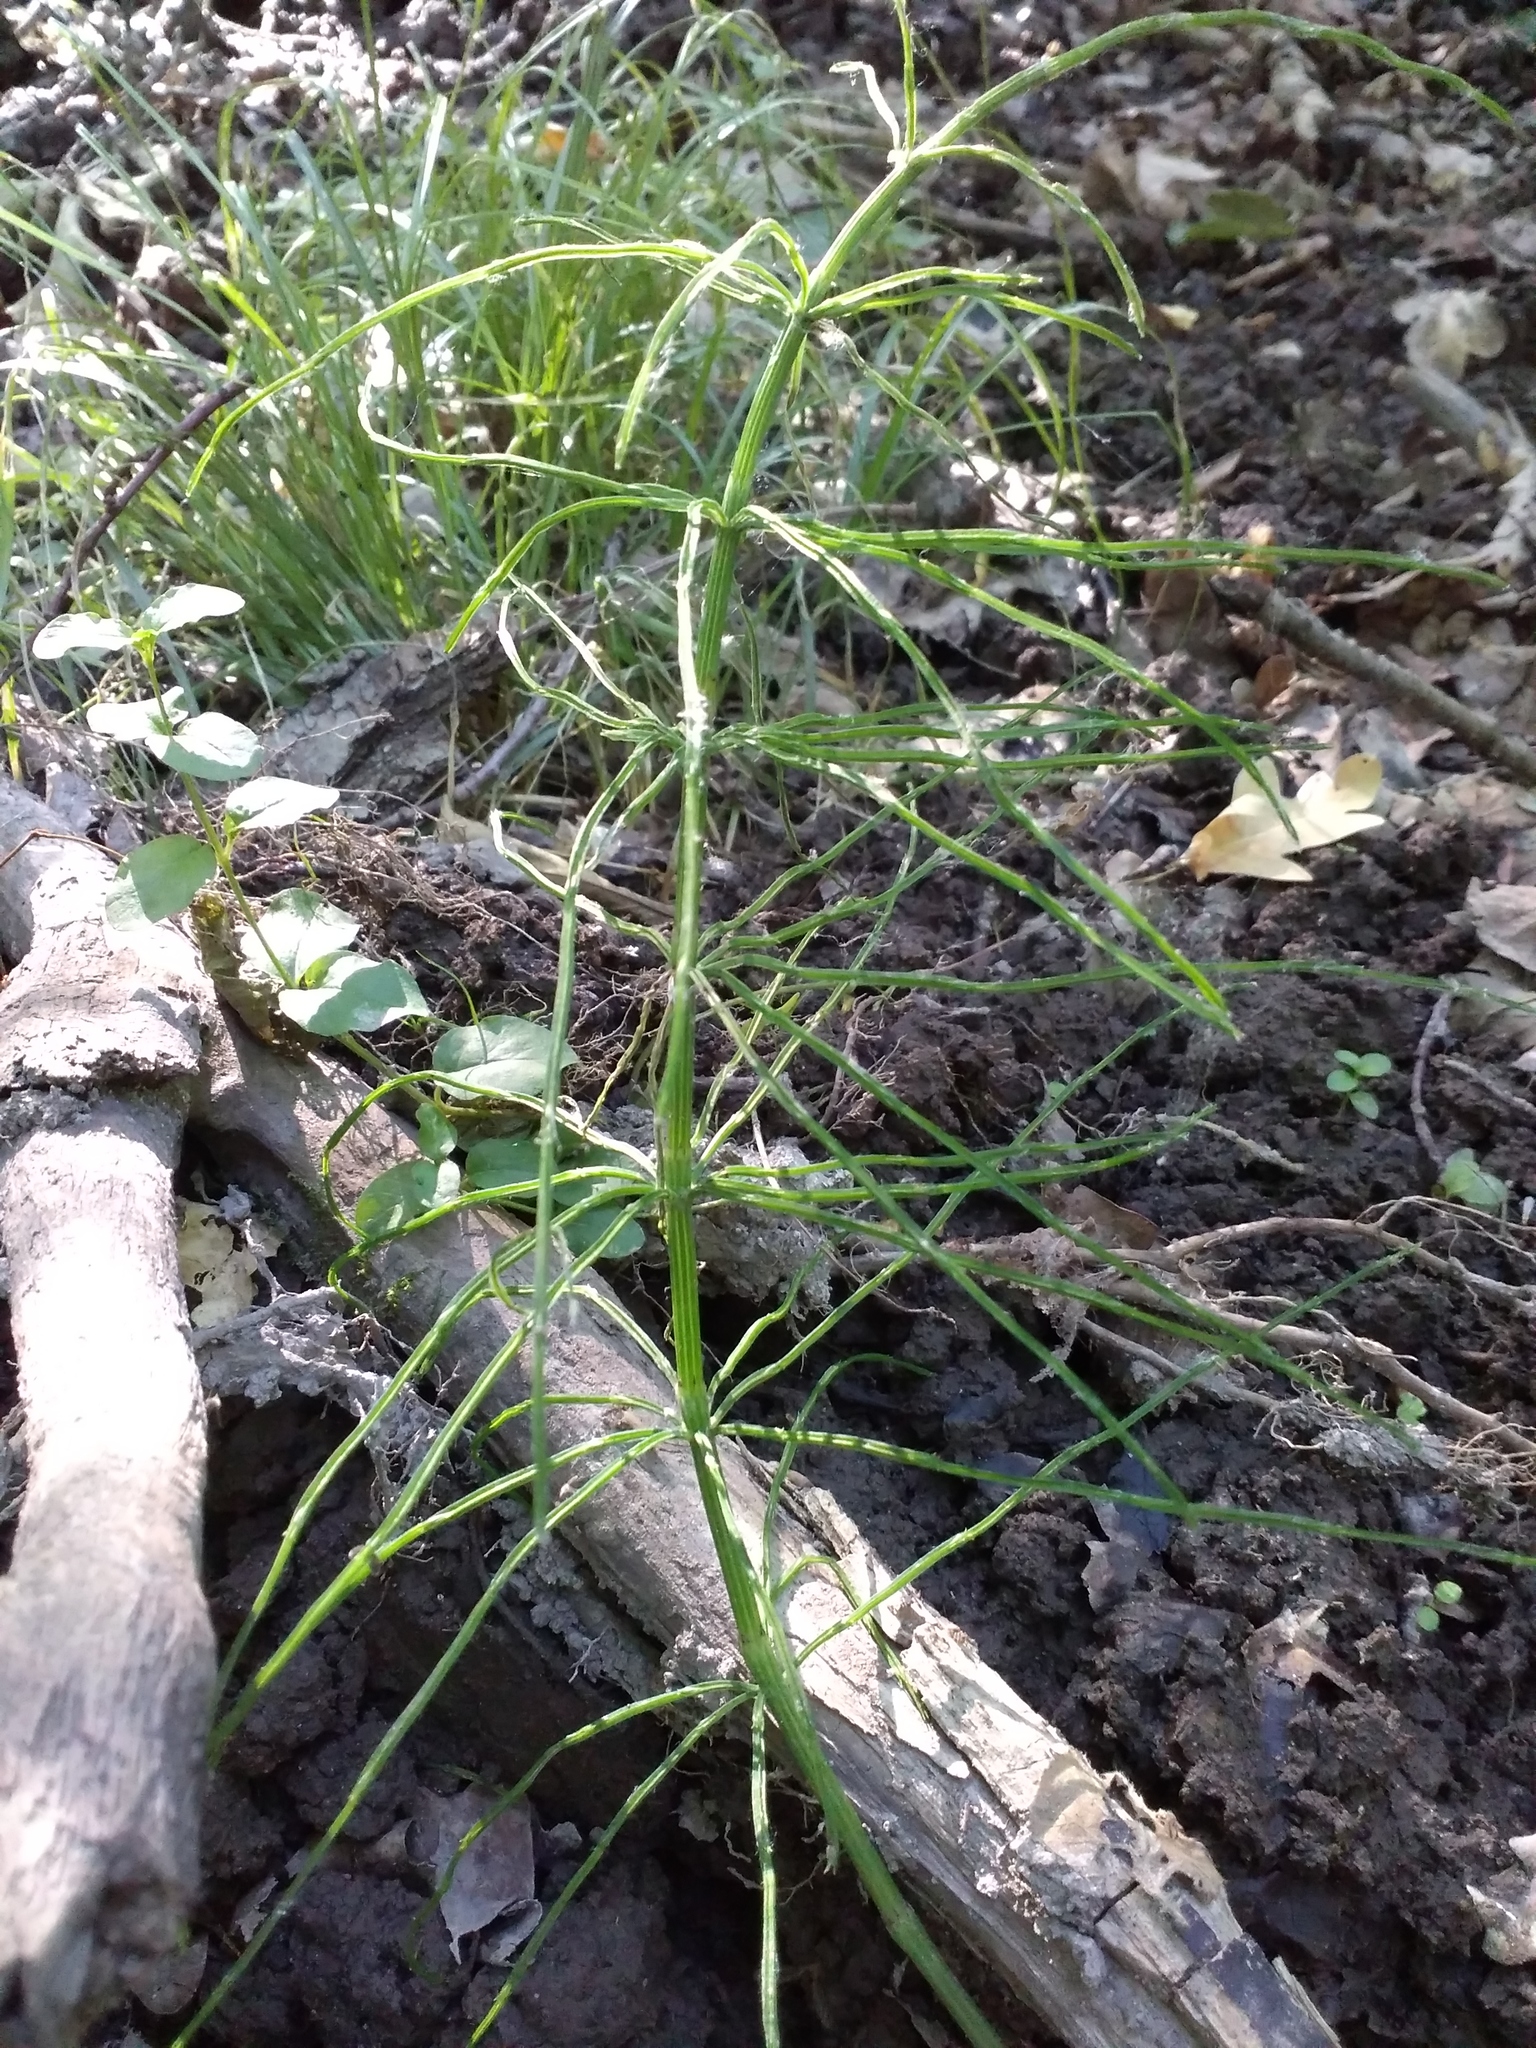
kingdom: Plantae
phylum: Tracheophyta
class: Polypodiopsida
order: Equisetales
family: Equisetaceae
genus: Equisetum
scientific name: Equisetum arvense
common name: Field horsetail
